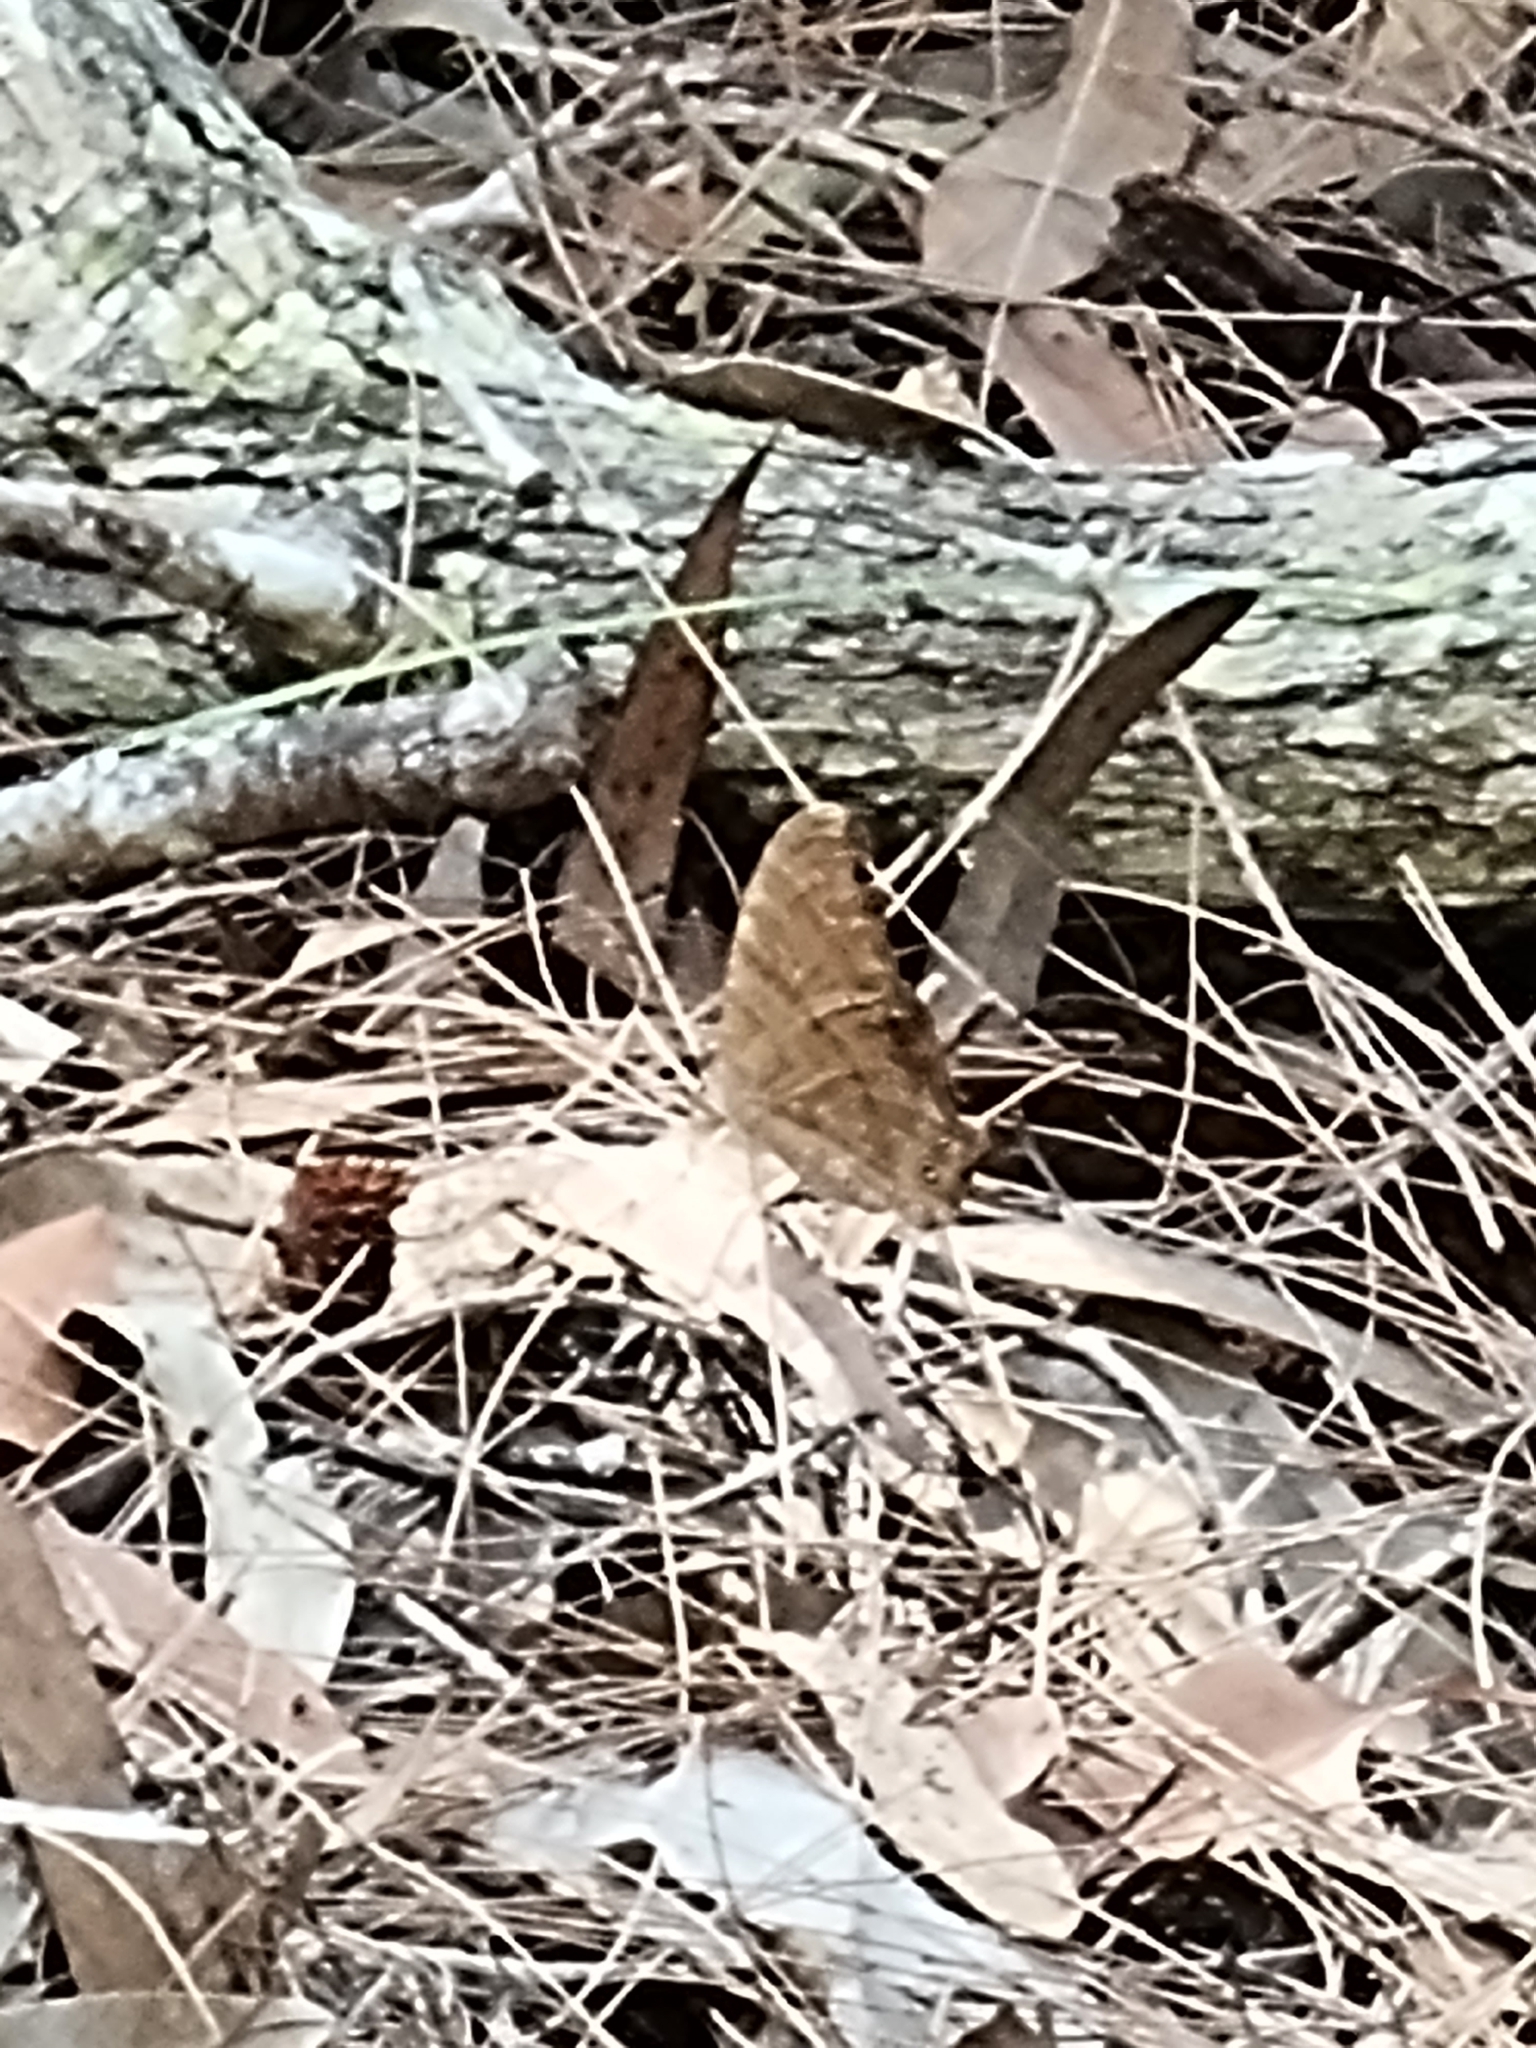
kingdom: Animalia
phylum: Arthropoda
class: Insecta
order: Lepidoptera
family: Nymphalidae
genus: Melanitis
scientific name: Melanitis leda
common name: Twilight brown
